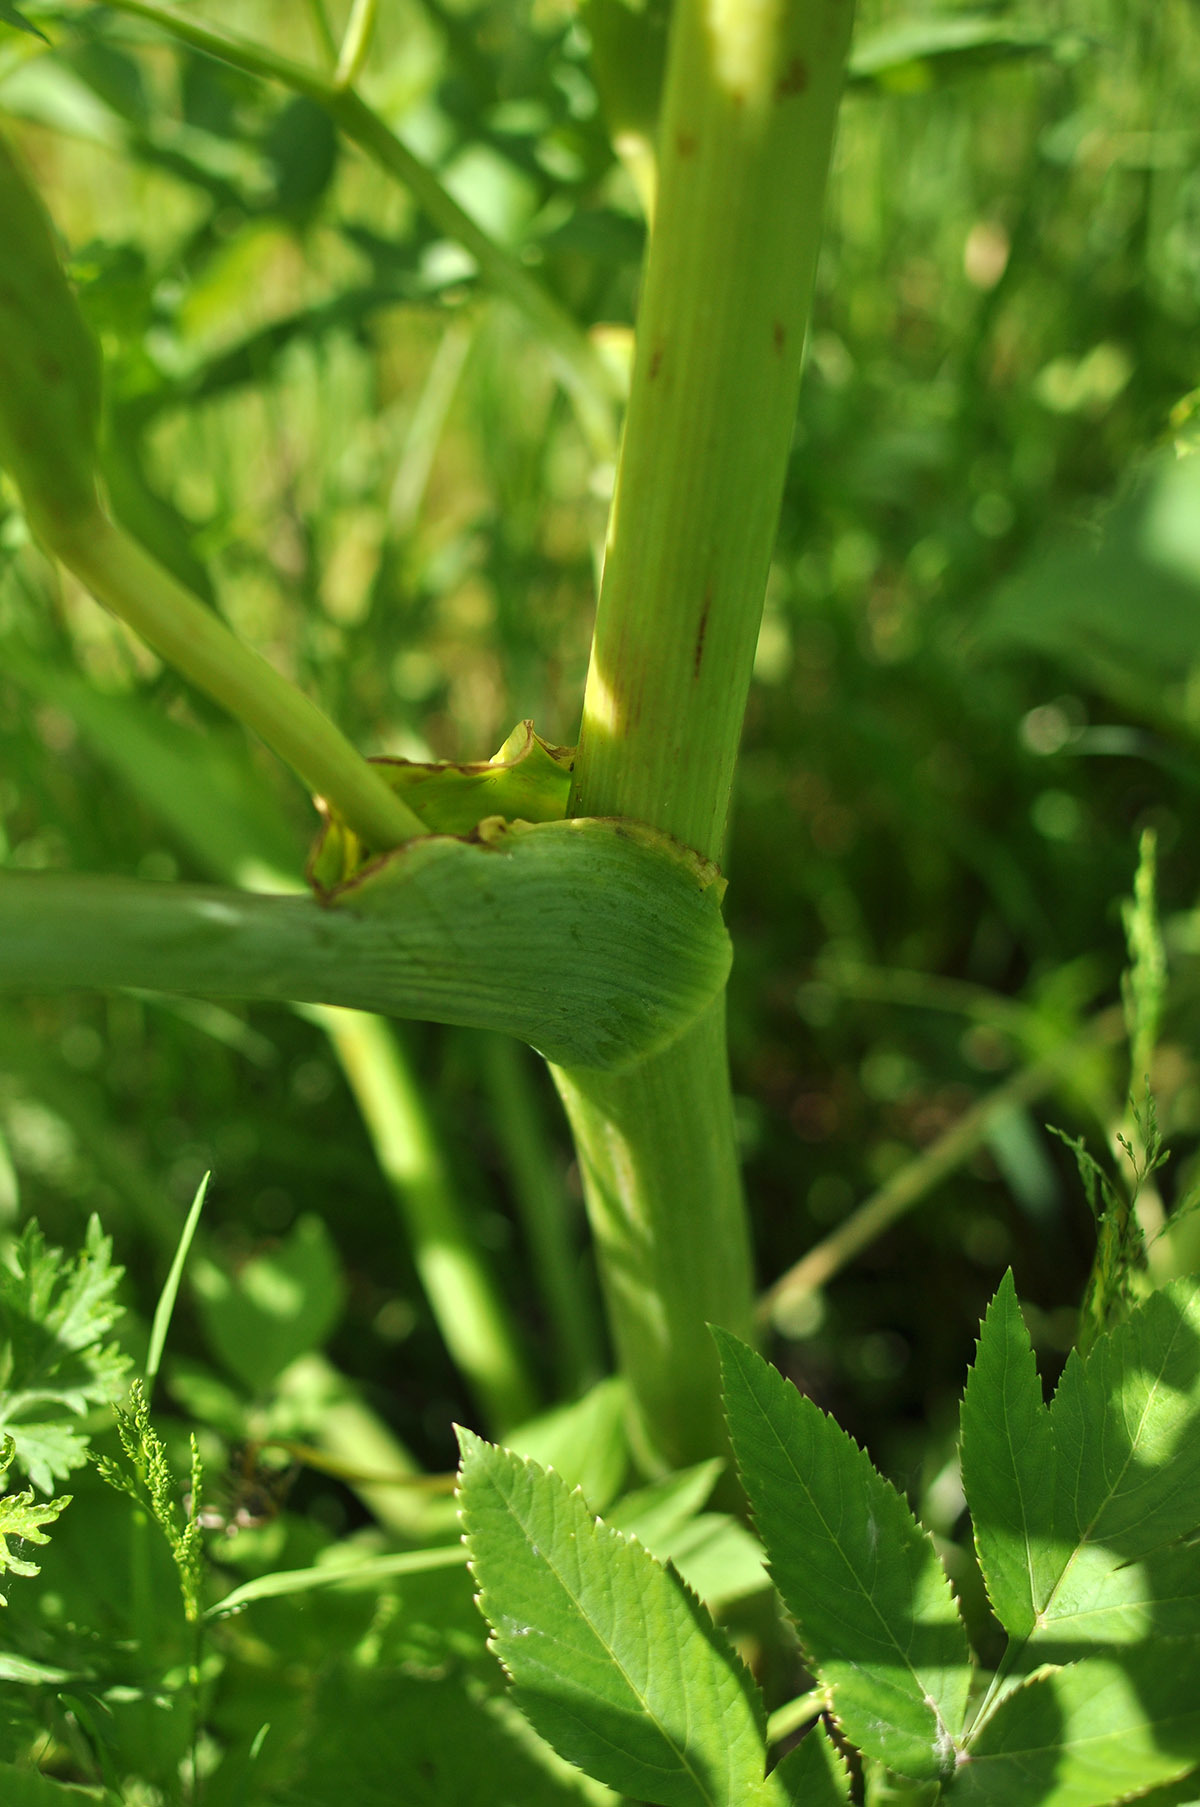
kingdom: Plantae
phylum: Tracheophyta
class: Magnoliopsida
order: Apiales
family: Apiaceae
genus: Angelica
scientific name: Angelica decurrens
